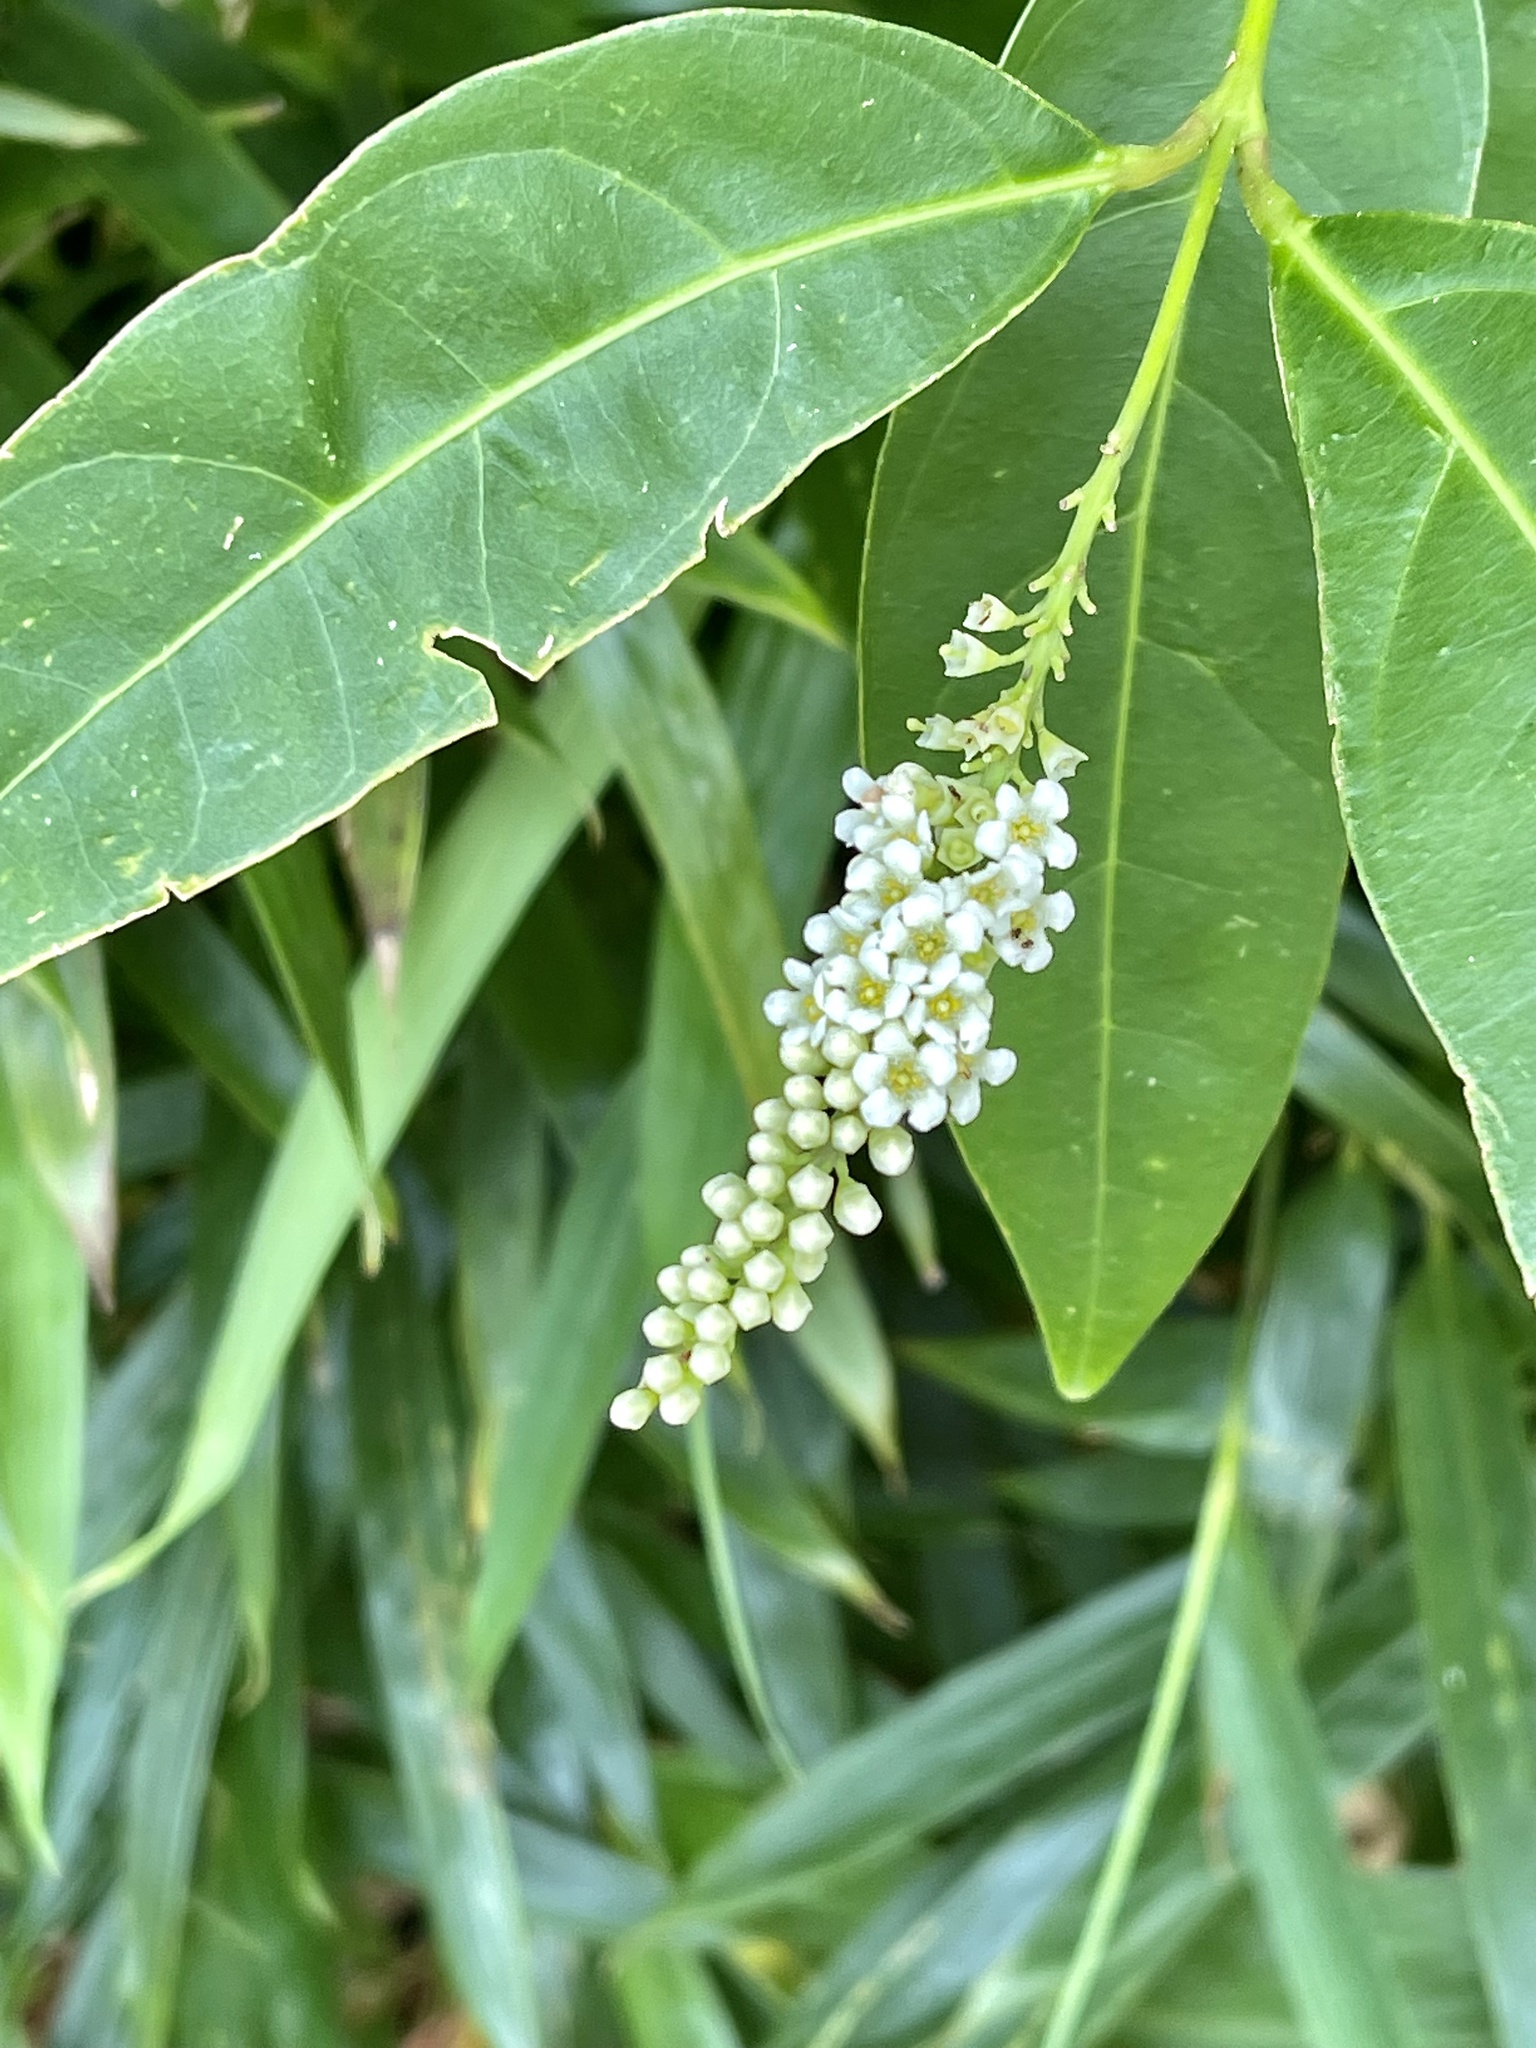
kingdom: Plantae
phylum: Tracheophyta
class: Magnoliopsida
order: Lamiales
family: Verbenaceae
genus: Citharexylum
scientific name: Citharexylum caudatum
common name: Fiddlewood
